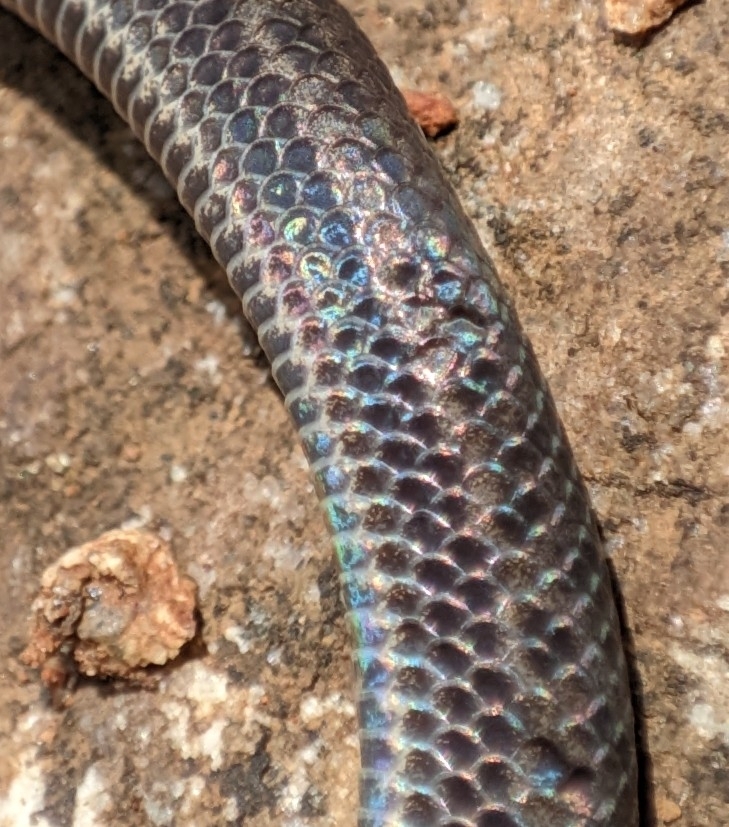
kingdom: Animalia
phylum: Chordata
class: Squamata
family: Pareidae
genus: Xylophis
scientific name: Xylophis perroteti
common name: Perrotet's mountain snake
